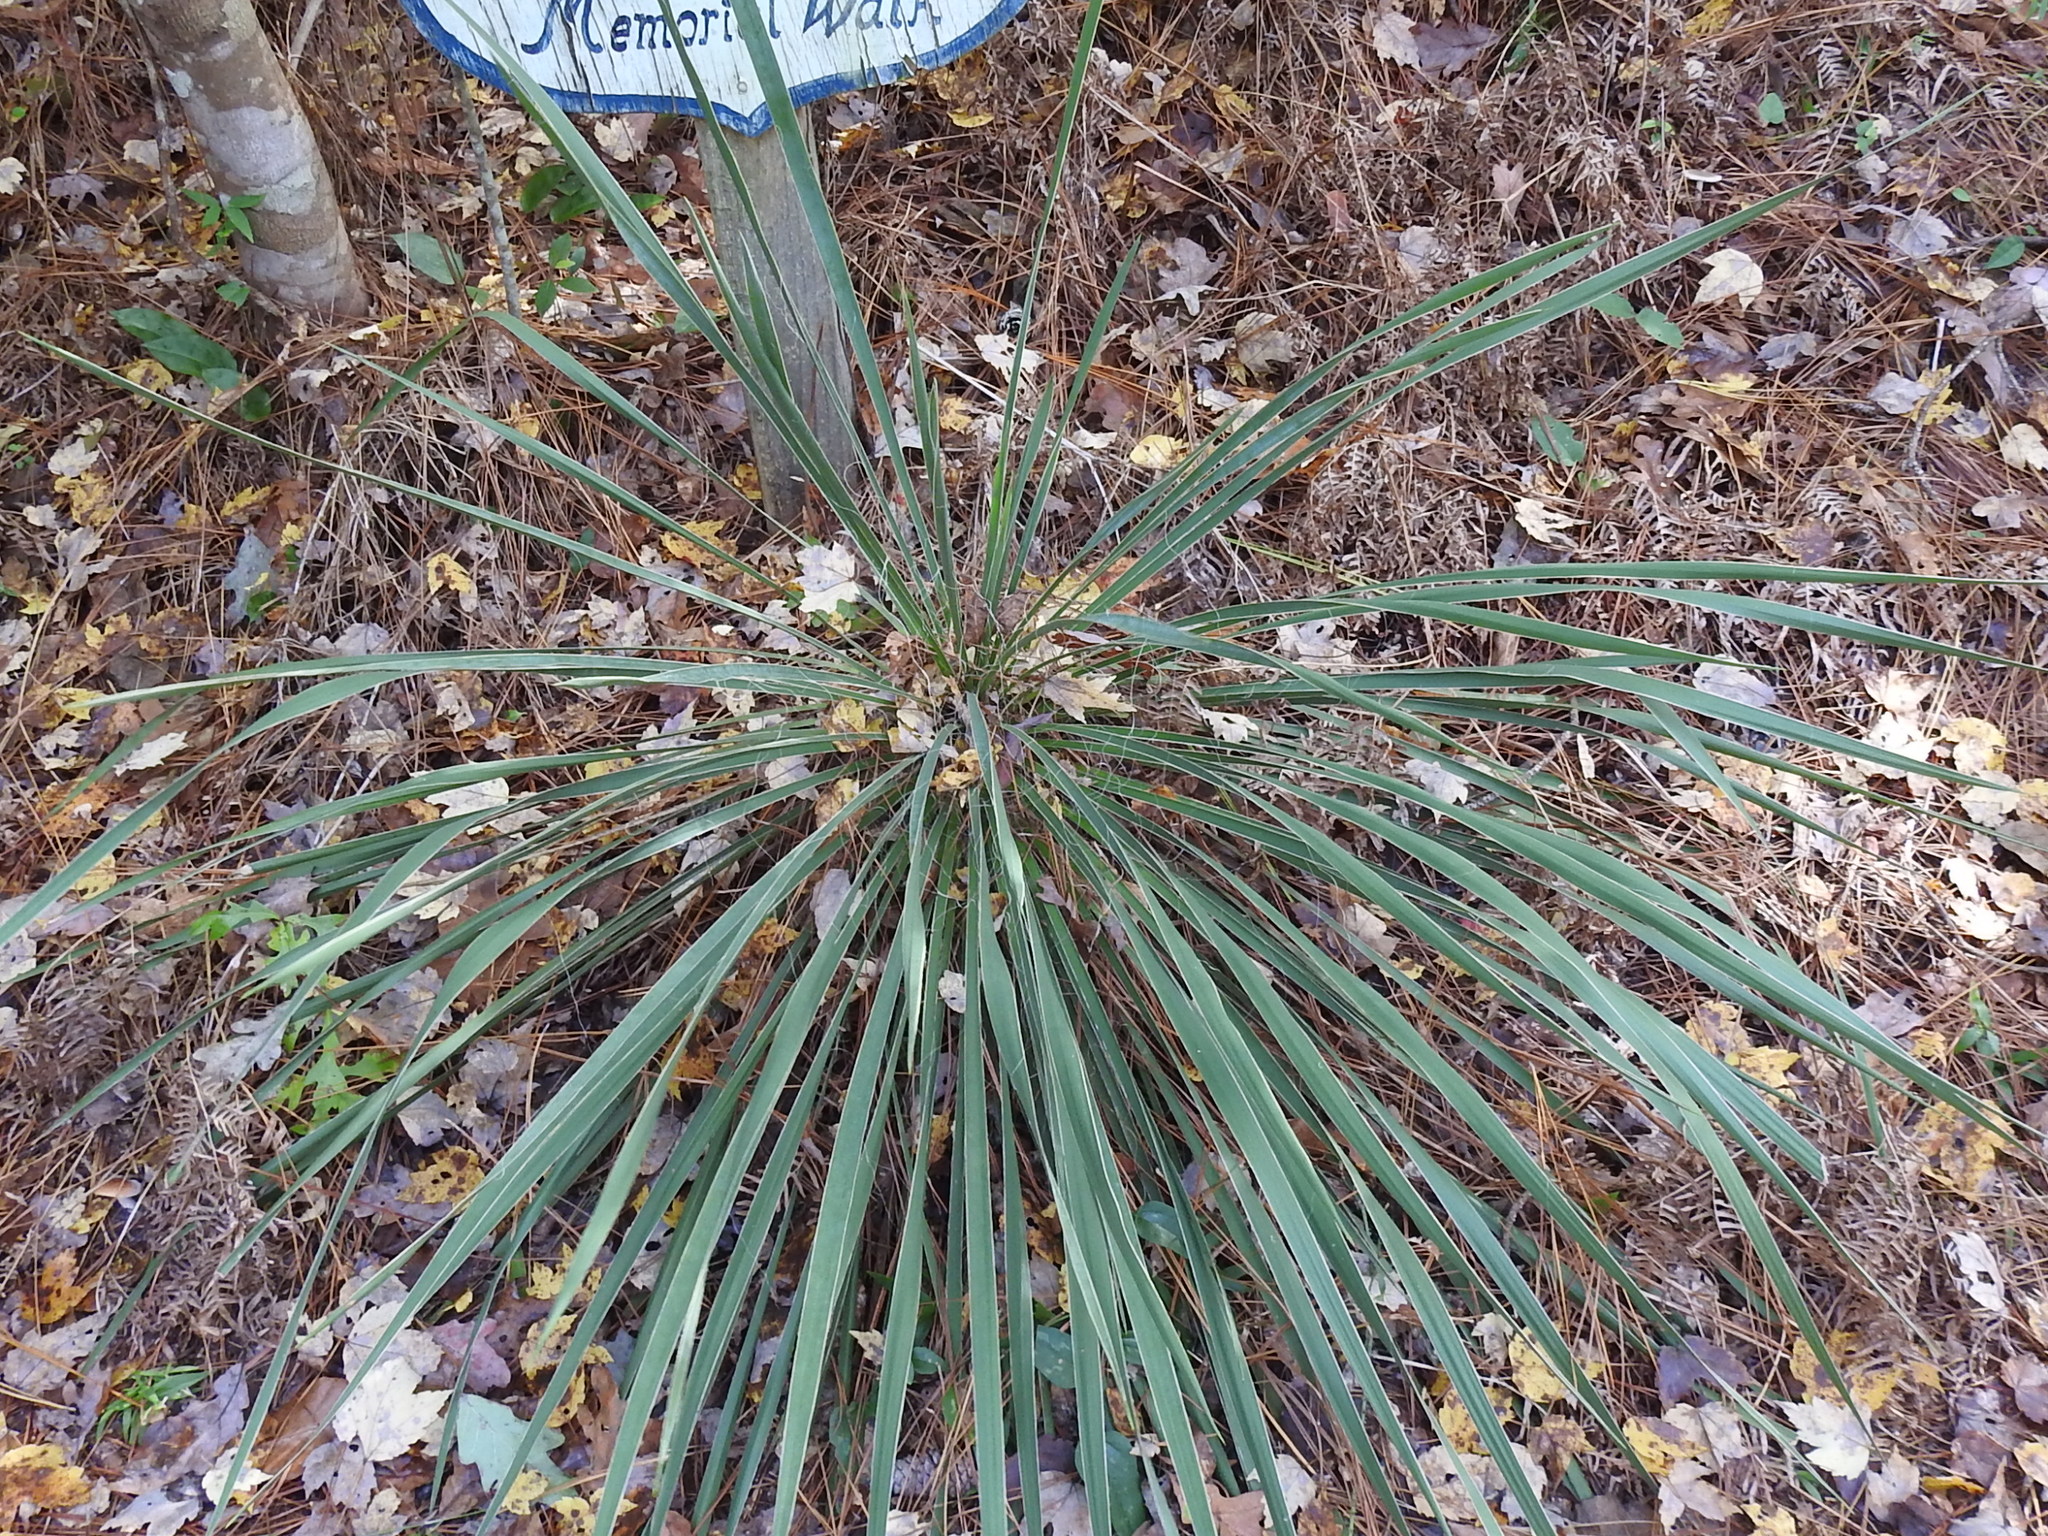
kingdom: Plantae
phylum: Tracheophyta
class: Liliopsida
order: Asparagales
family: Asparagaceae
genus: Yucca
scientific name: Yucca flaccida
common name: Adam's-needle
